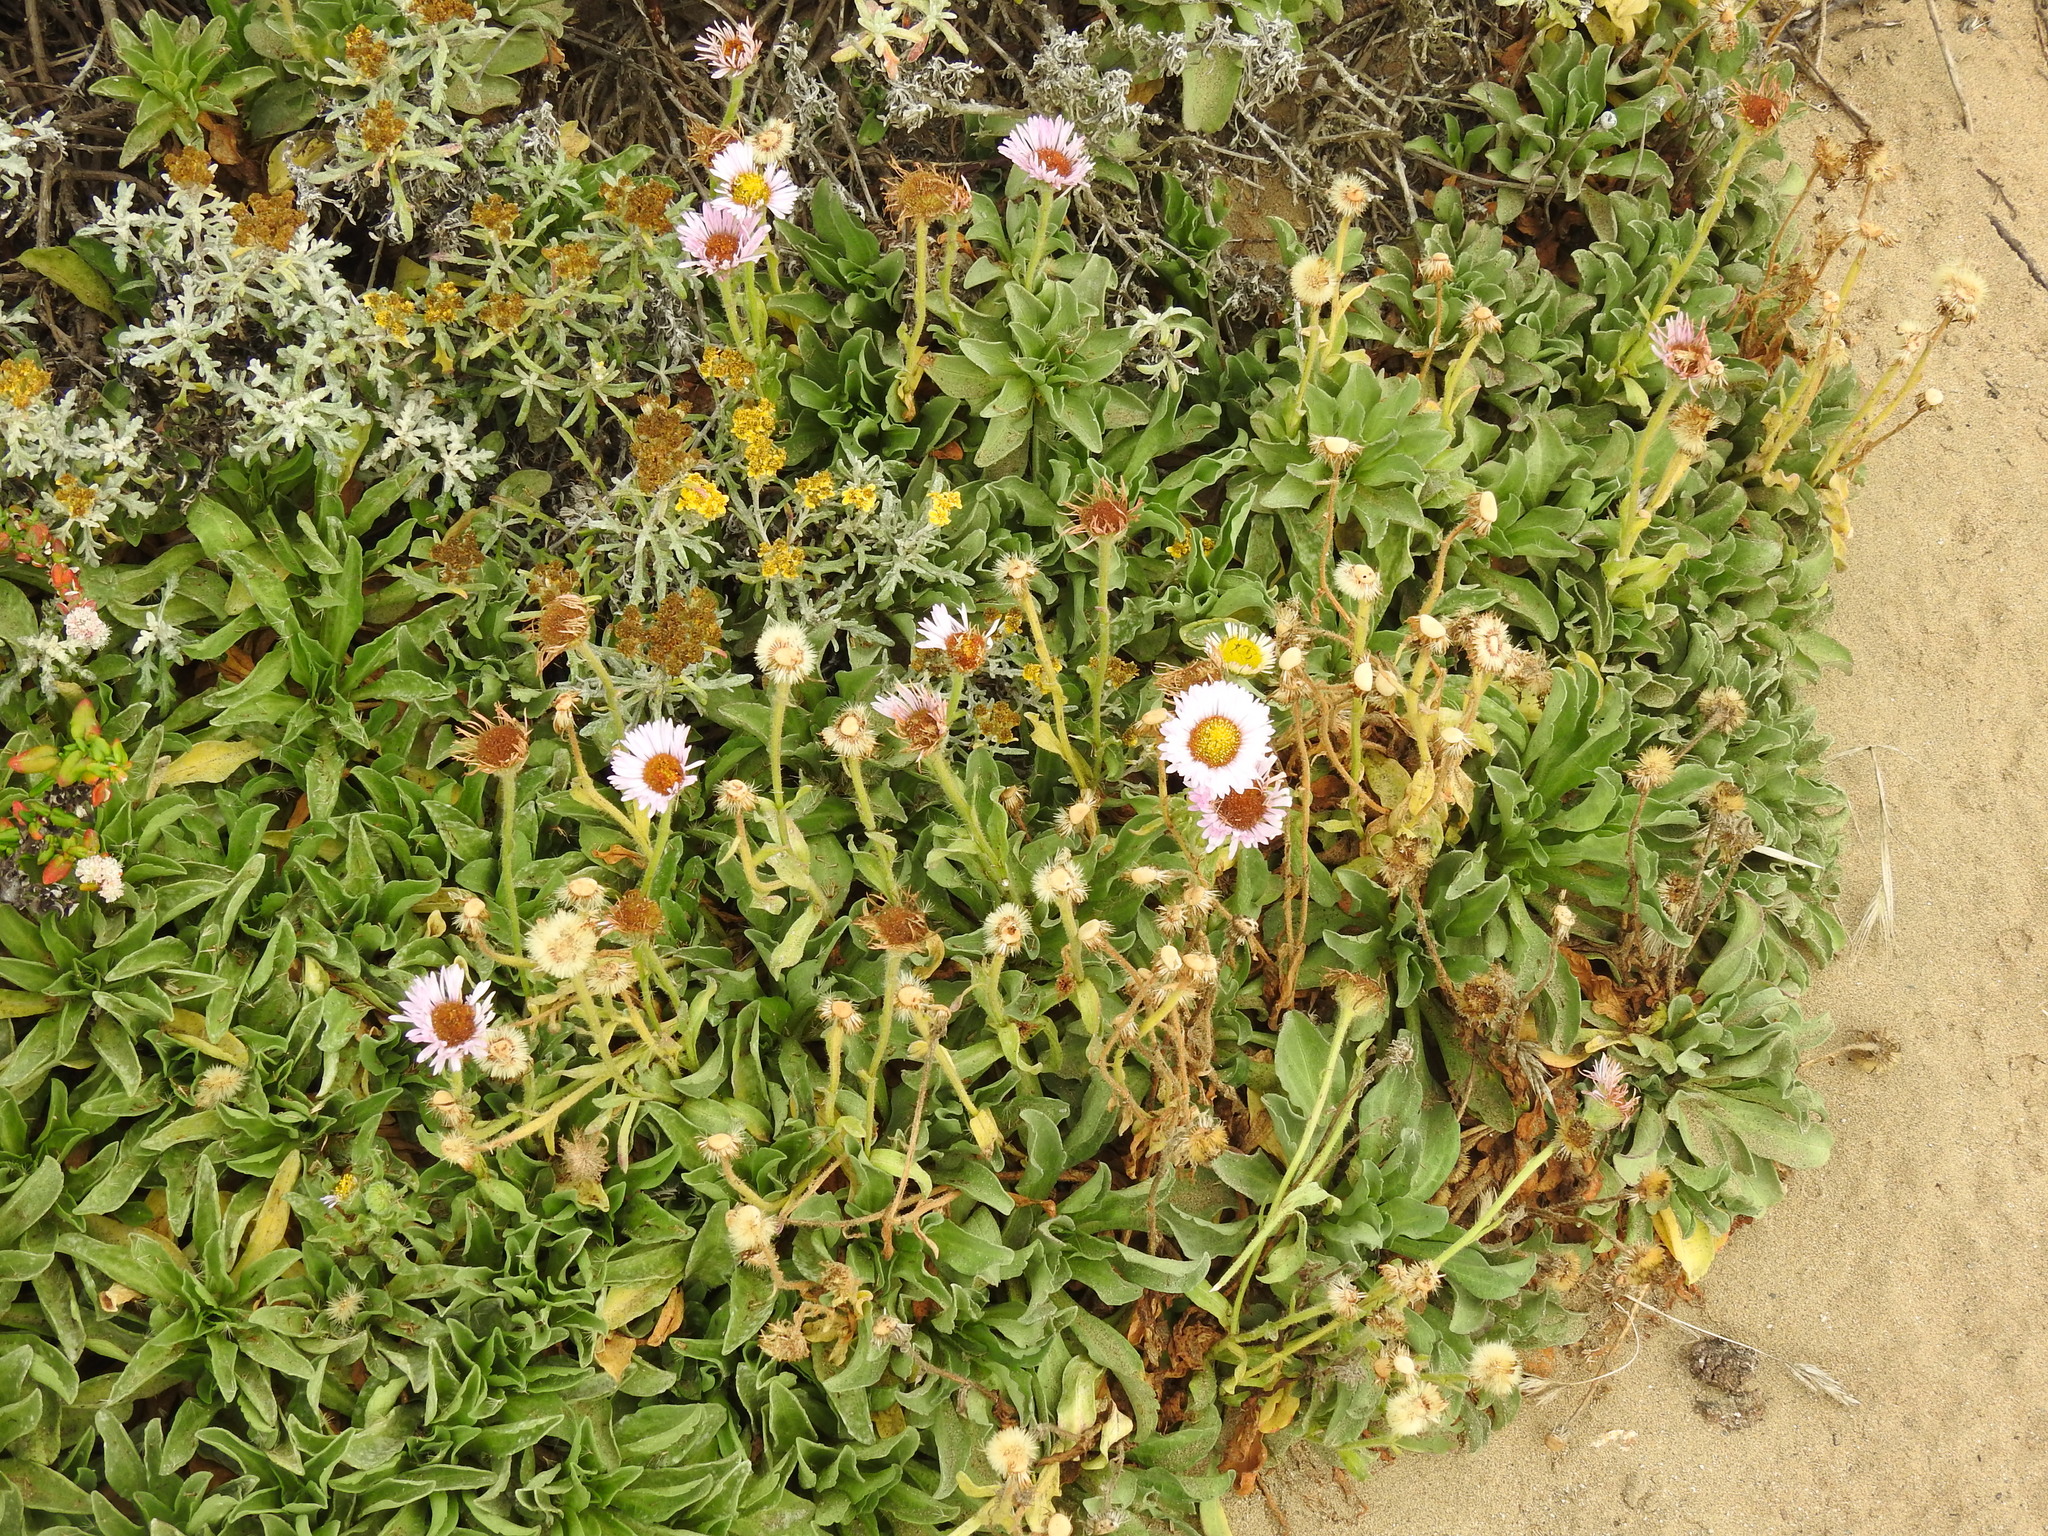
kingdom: Plantae
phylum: Tracheophyta
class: Magnoliopsida
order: Asterales
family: Asteraceae
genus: Erigeron
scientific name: Erigeron glaucus
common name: Seaside daisy
